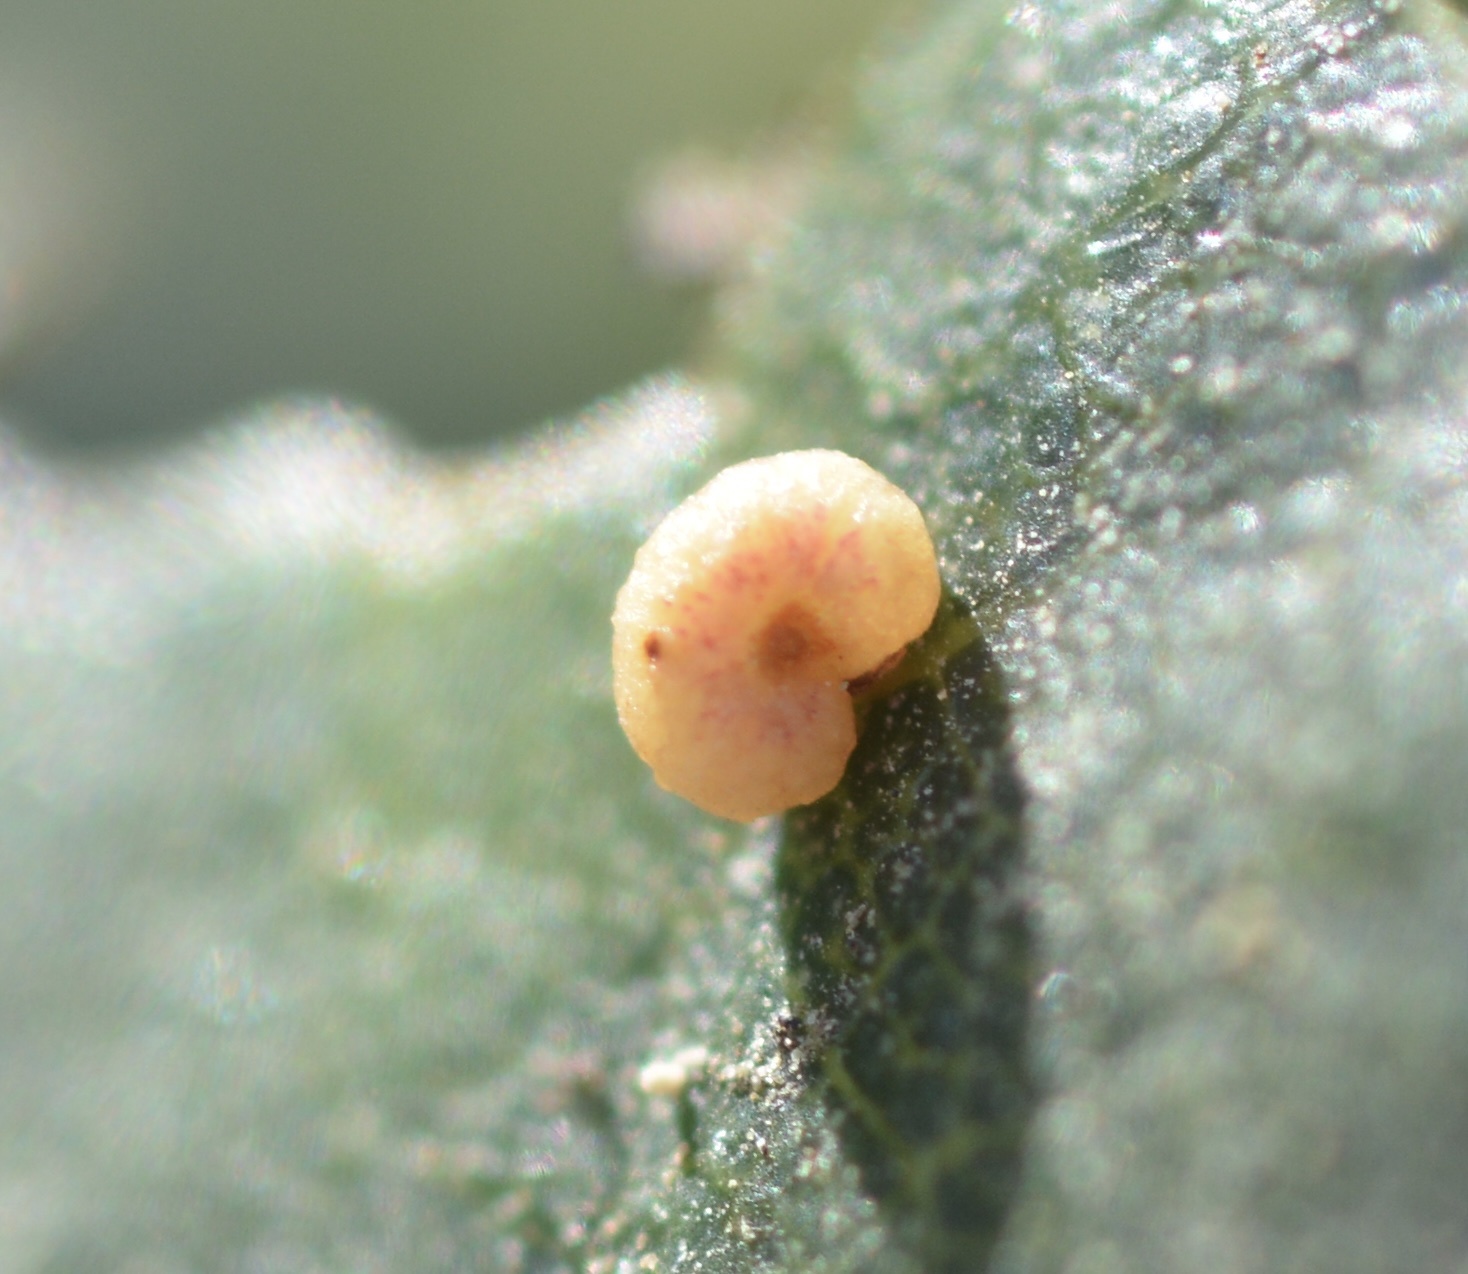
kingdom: Animalia
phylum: Arthropoda
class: Insecta
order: Hymenoptera
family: Cynipidae
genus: Dryocosmus
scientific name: Dryocosmus
